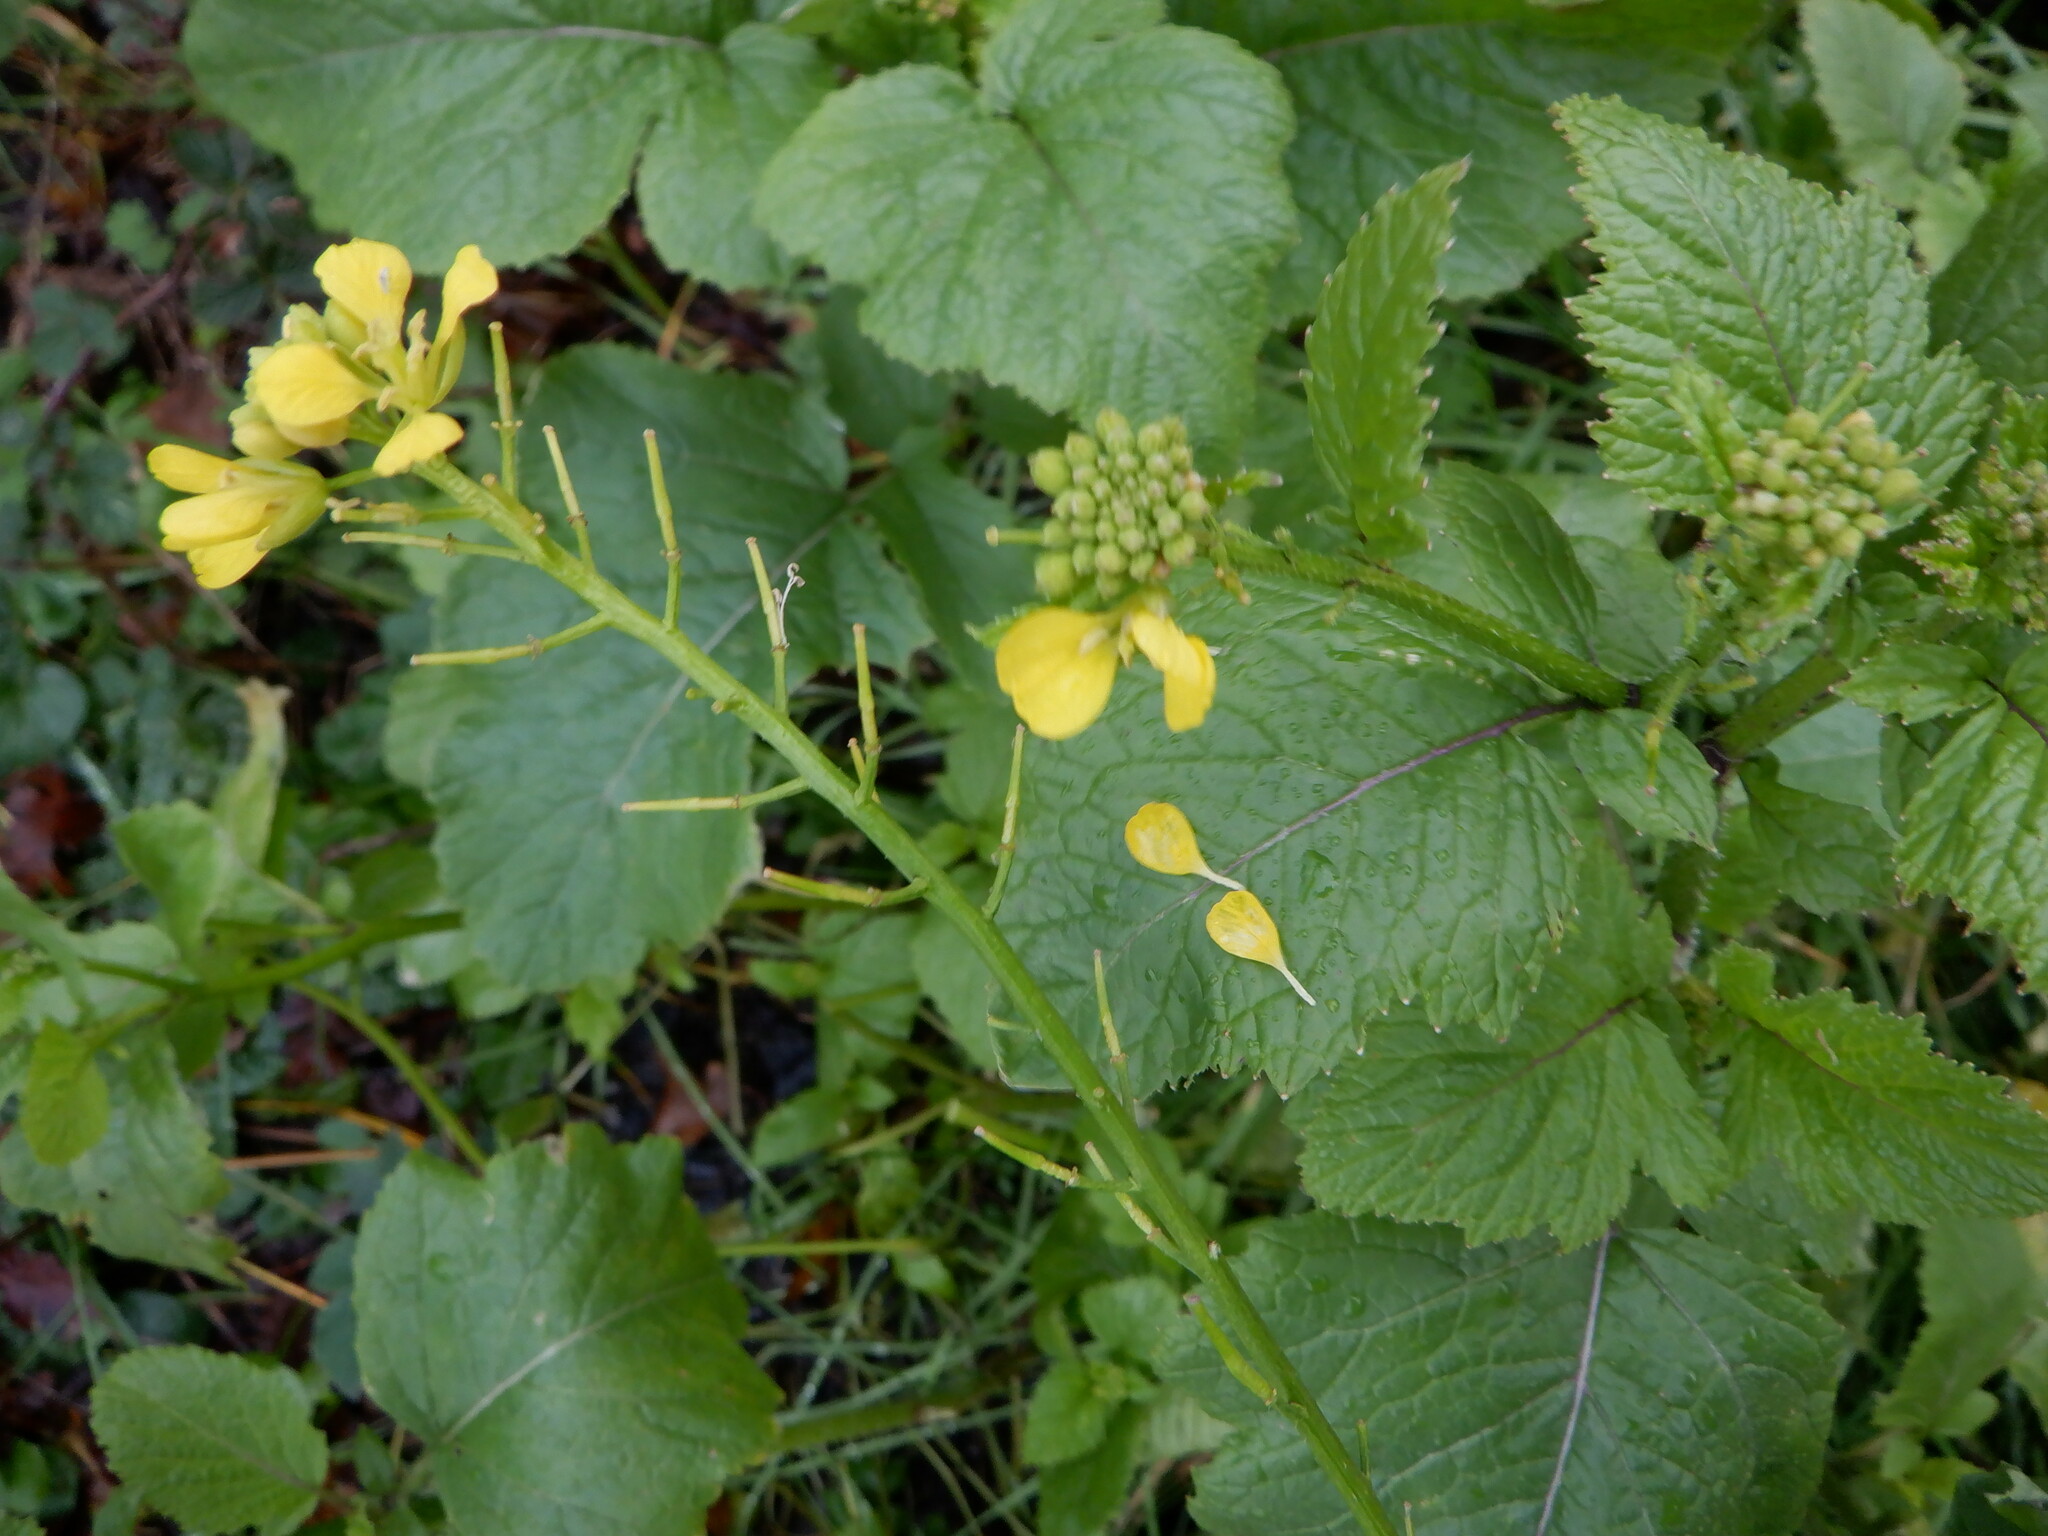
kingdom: Plantae
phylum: Tracheophyta
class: Magnoliopsida
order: Brassicales
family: Brassicaceae
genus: Sinapis
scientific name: Sinapis arvensis
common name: Charlock
